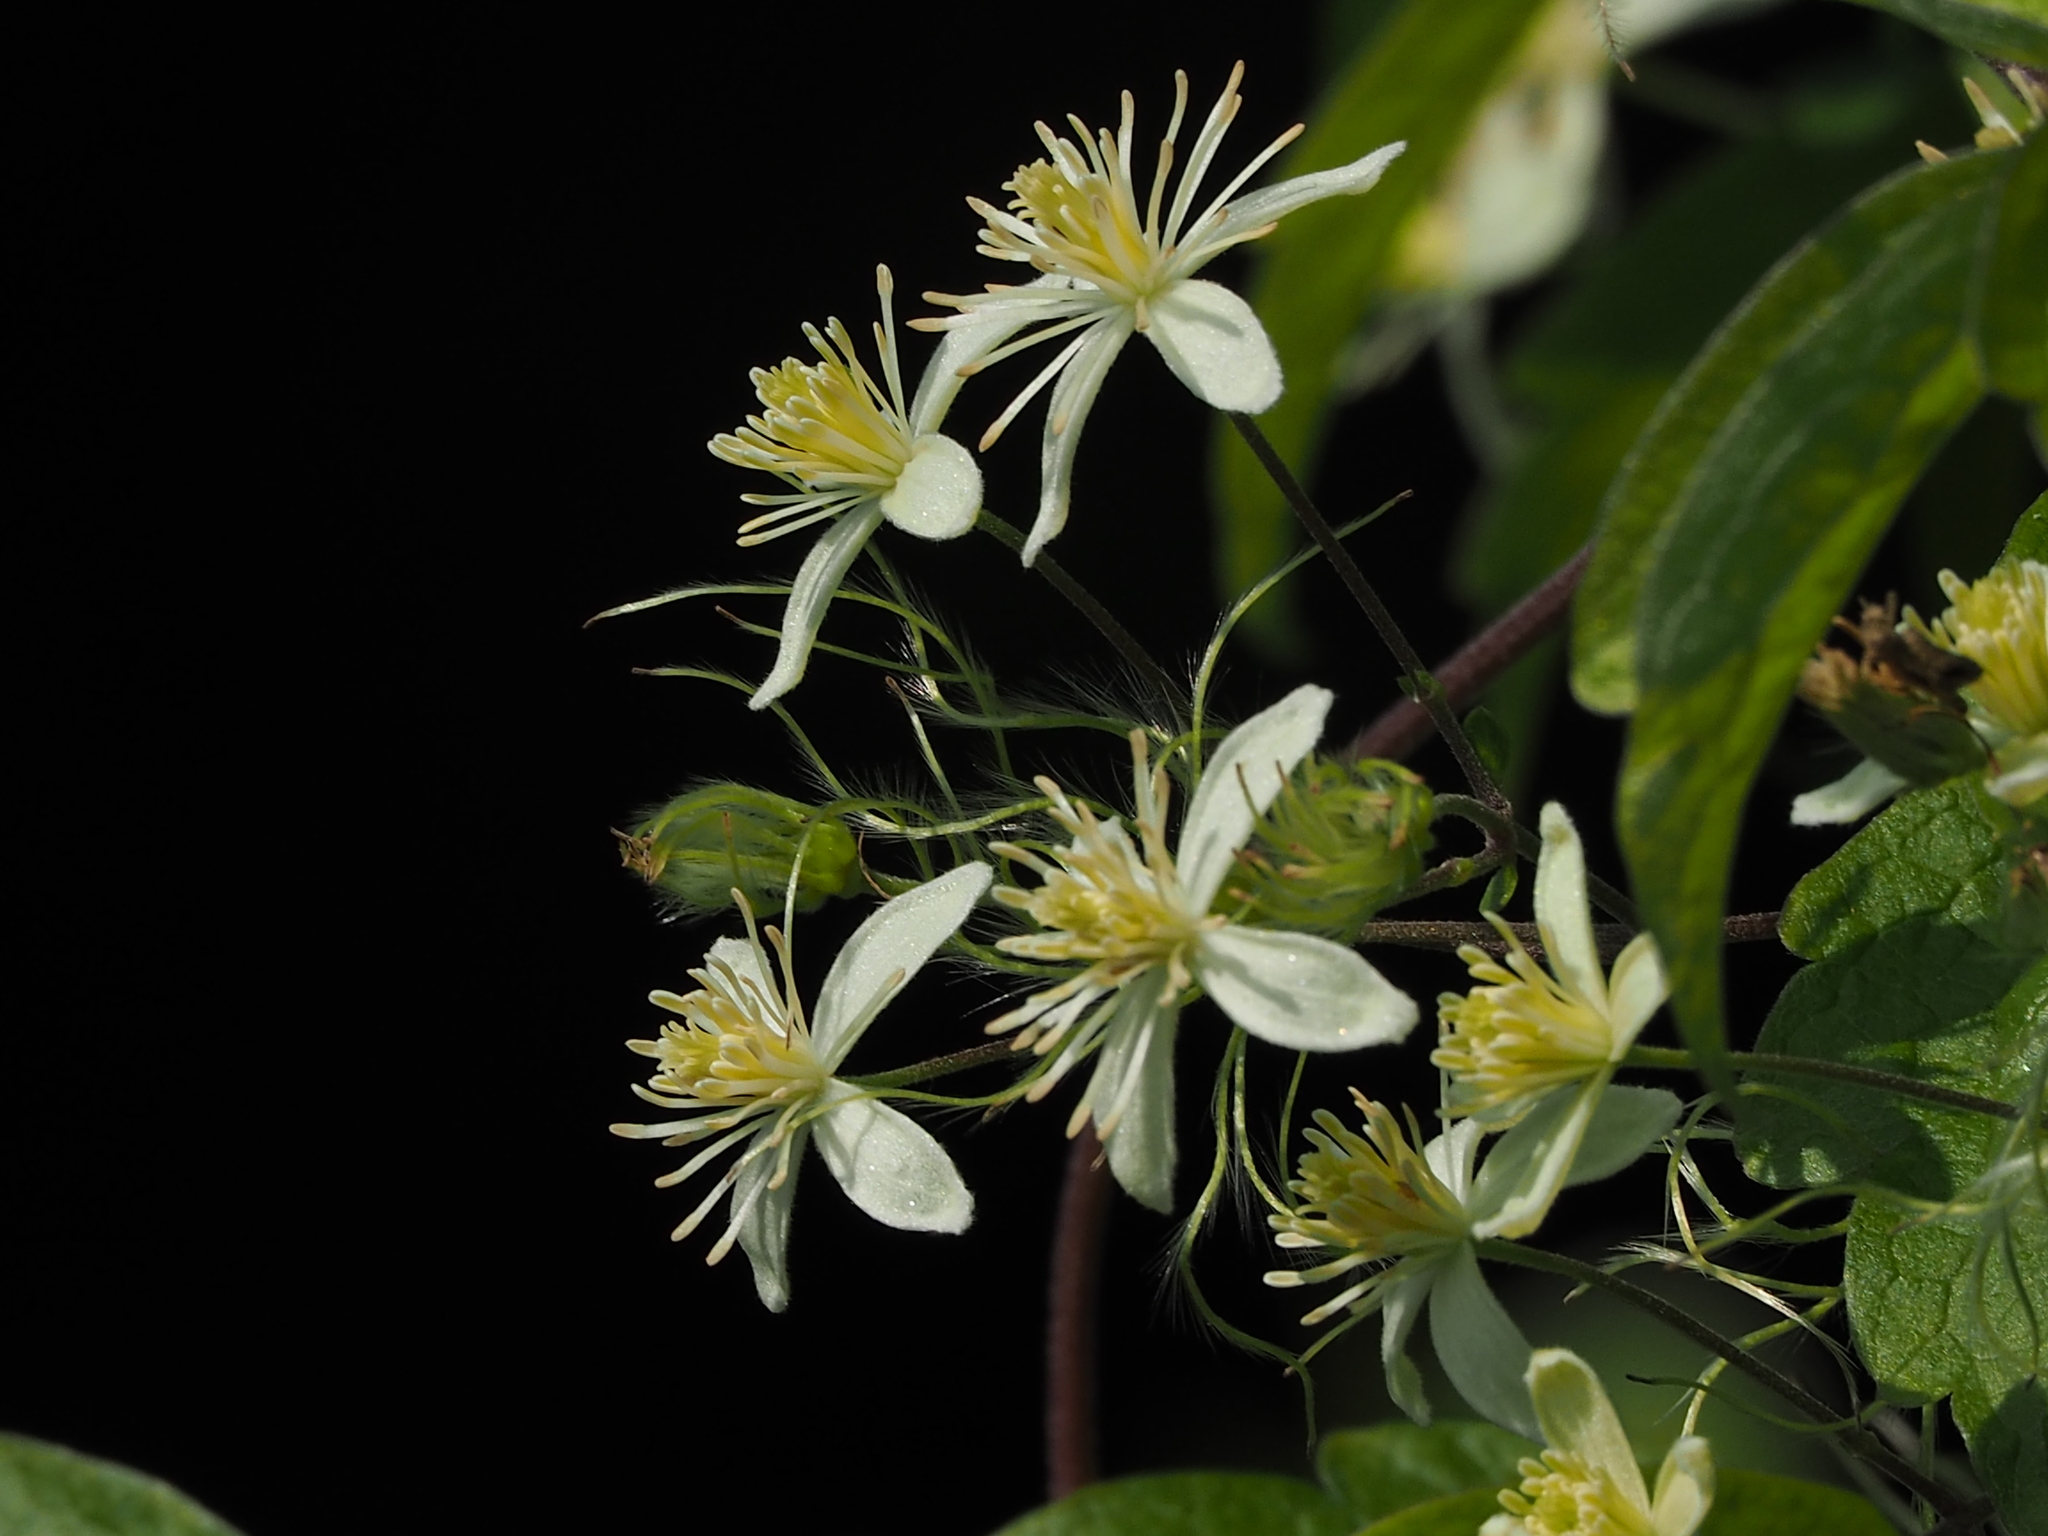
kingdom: Plantae
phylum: Tracheophyta
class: Magnoliopsida
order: Ranunculales
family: Ranunculaceae
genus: Clematis
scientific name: Clematis grata
